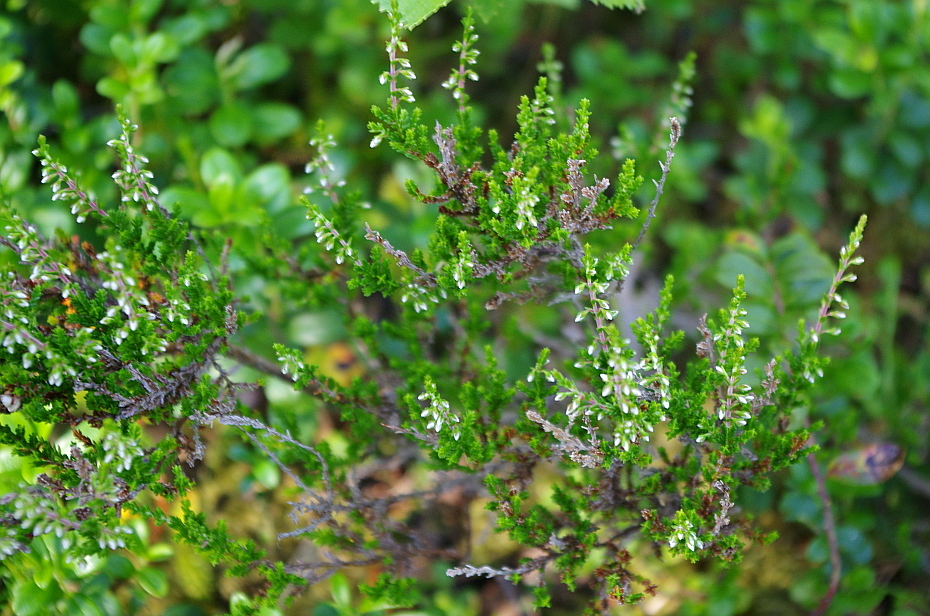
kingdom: Plantae
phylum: Tracheophyta
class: Magnoliopsida
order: Ericales
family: Ericaceae
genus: Calluna
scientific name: Calluna vulgaris
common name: Heather
